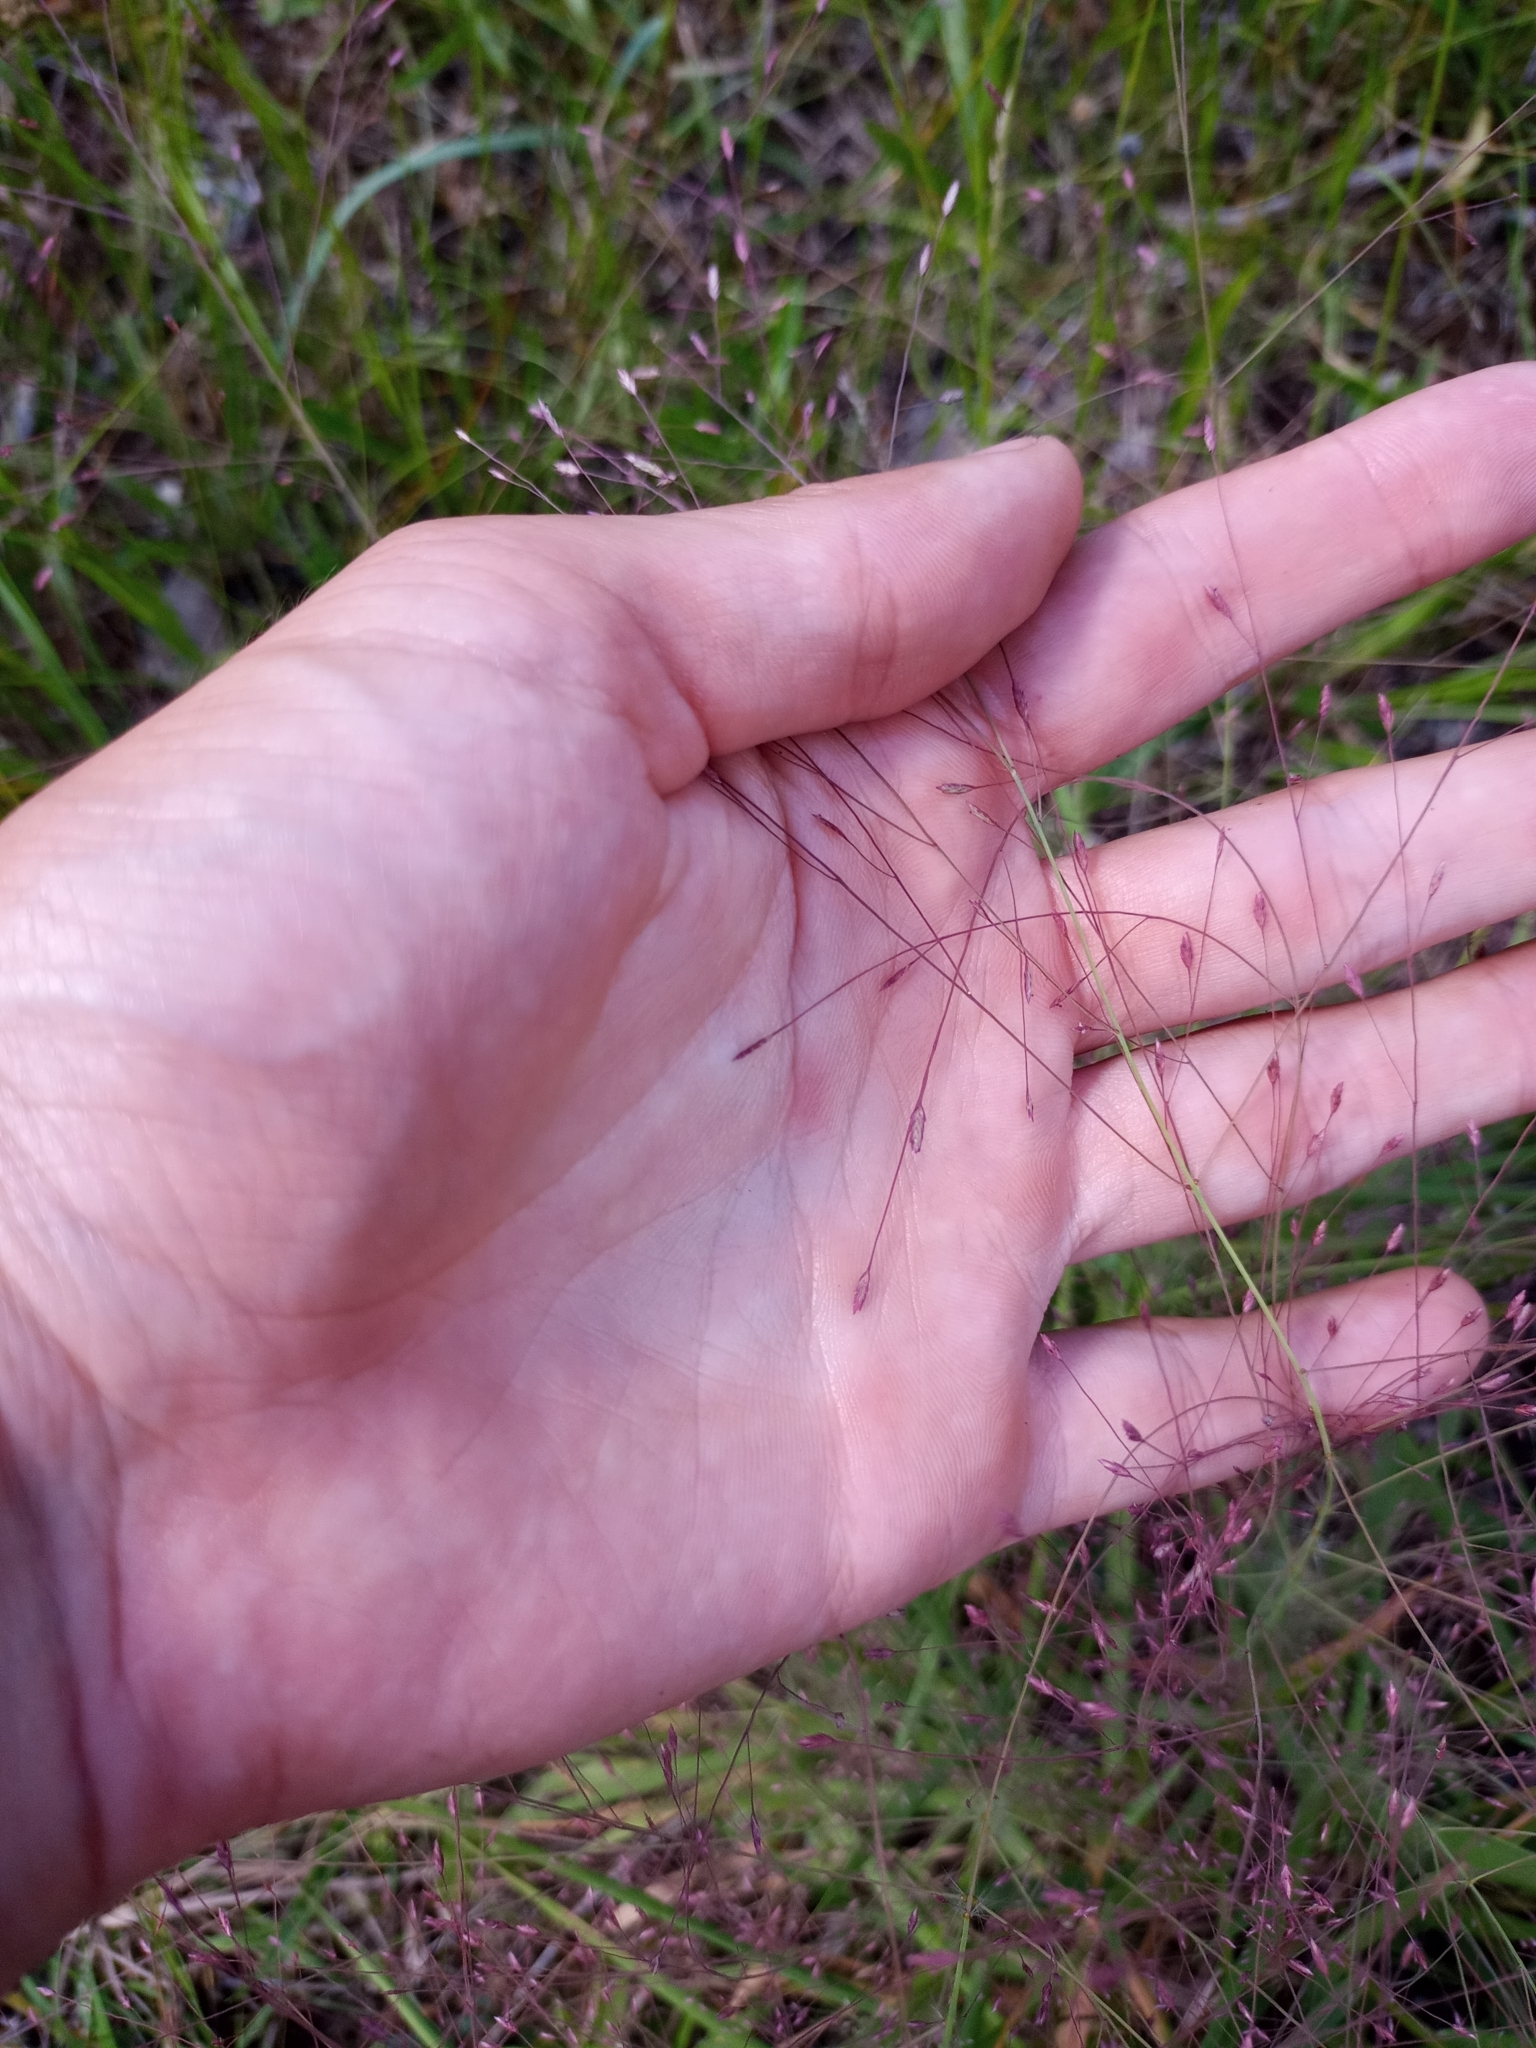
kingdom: Plantae
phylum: Tracheophyta
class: Liliopsida
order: Poales
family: Poaceae
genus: Eragrostis
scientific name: Eragrostis spectabilis
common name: Petticoat-climber
